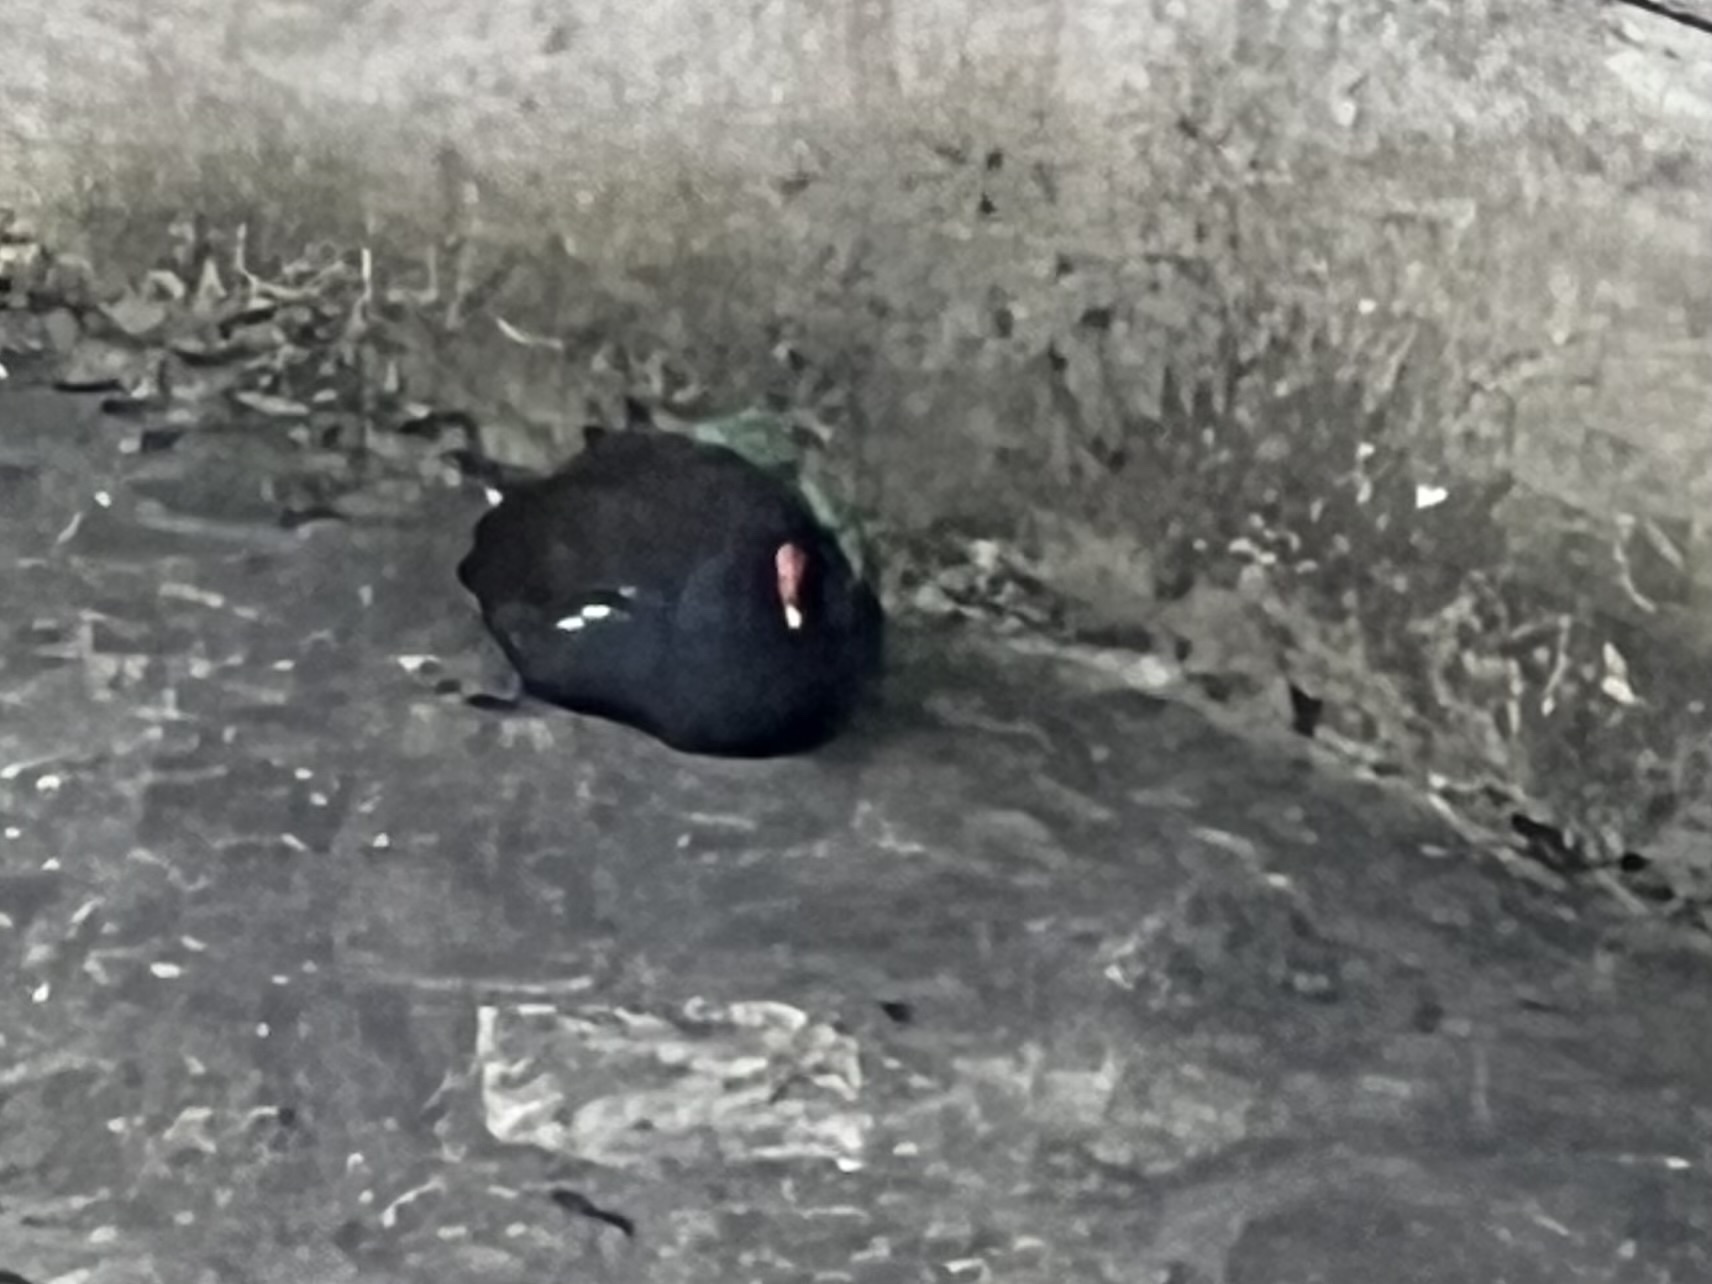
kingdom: Animalia
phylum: Chordata
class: Aves
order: Gruiformes
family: Rallidae
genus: Gallinula
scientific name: Gallinula chloropus
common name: Common moorhen
